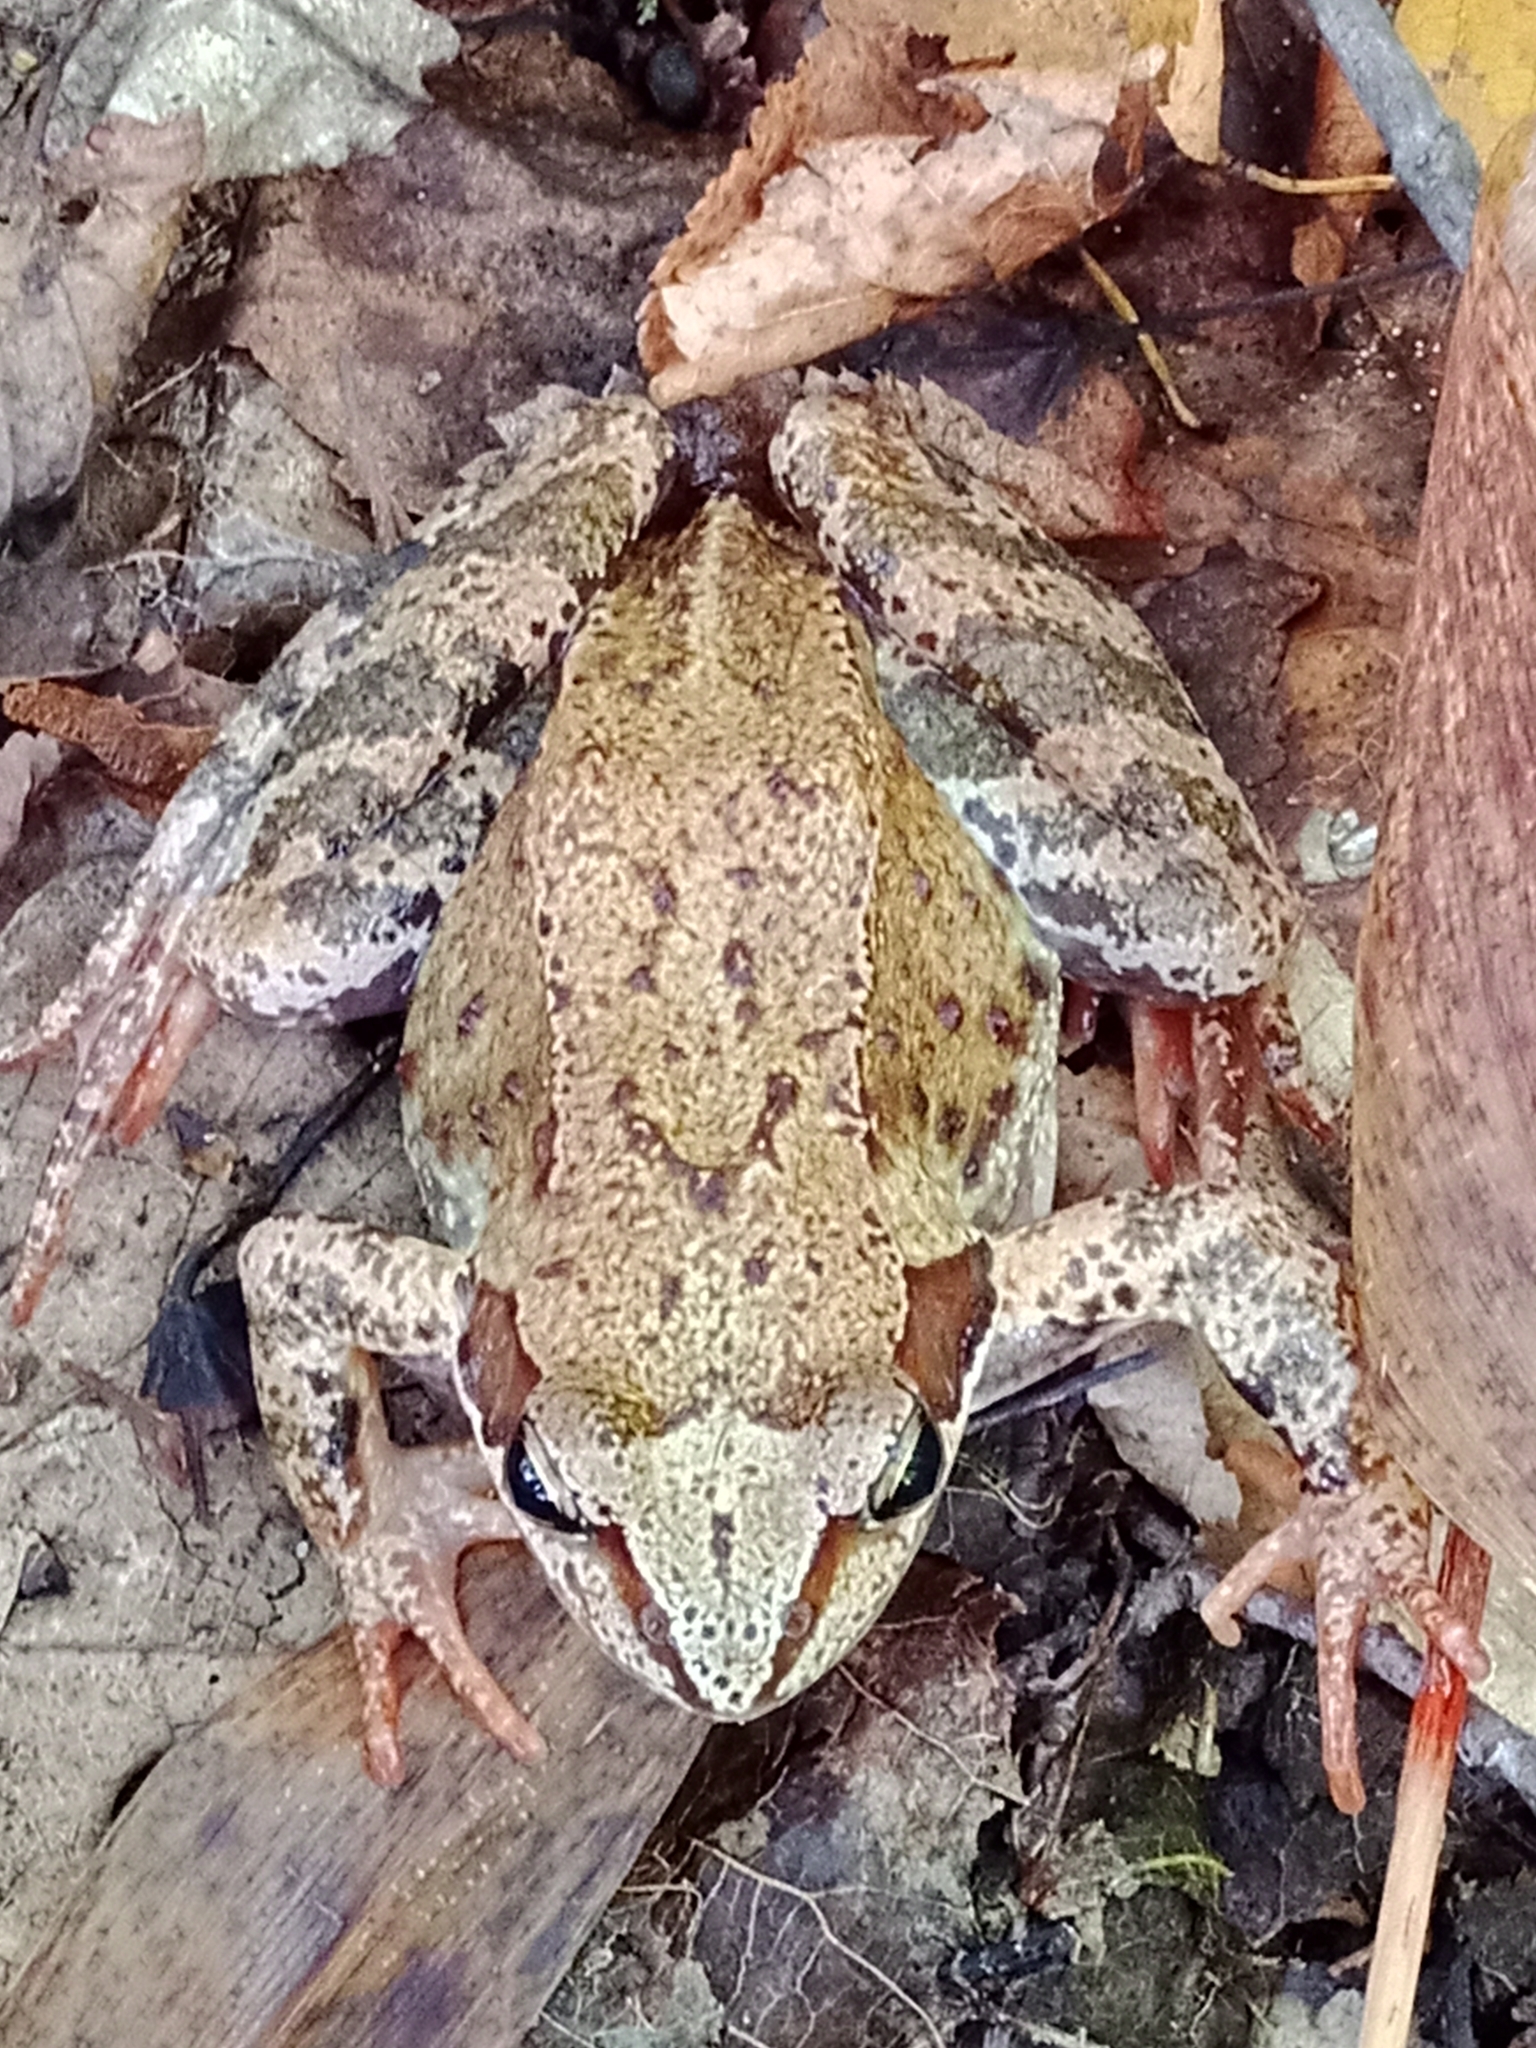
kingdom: Animalia
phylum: Chordata
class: Amphibia
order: Anura
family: Ranidae
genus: Rana
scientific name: Rana temporaria
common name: Common frog
